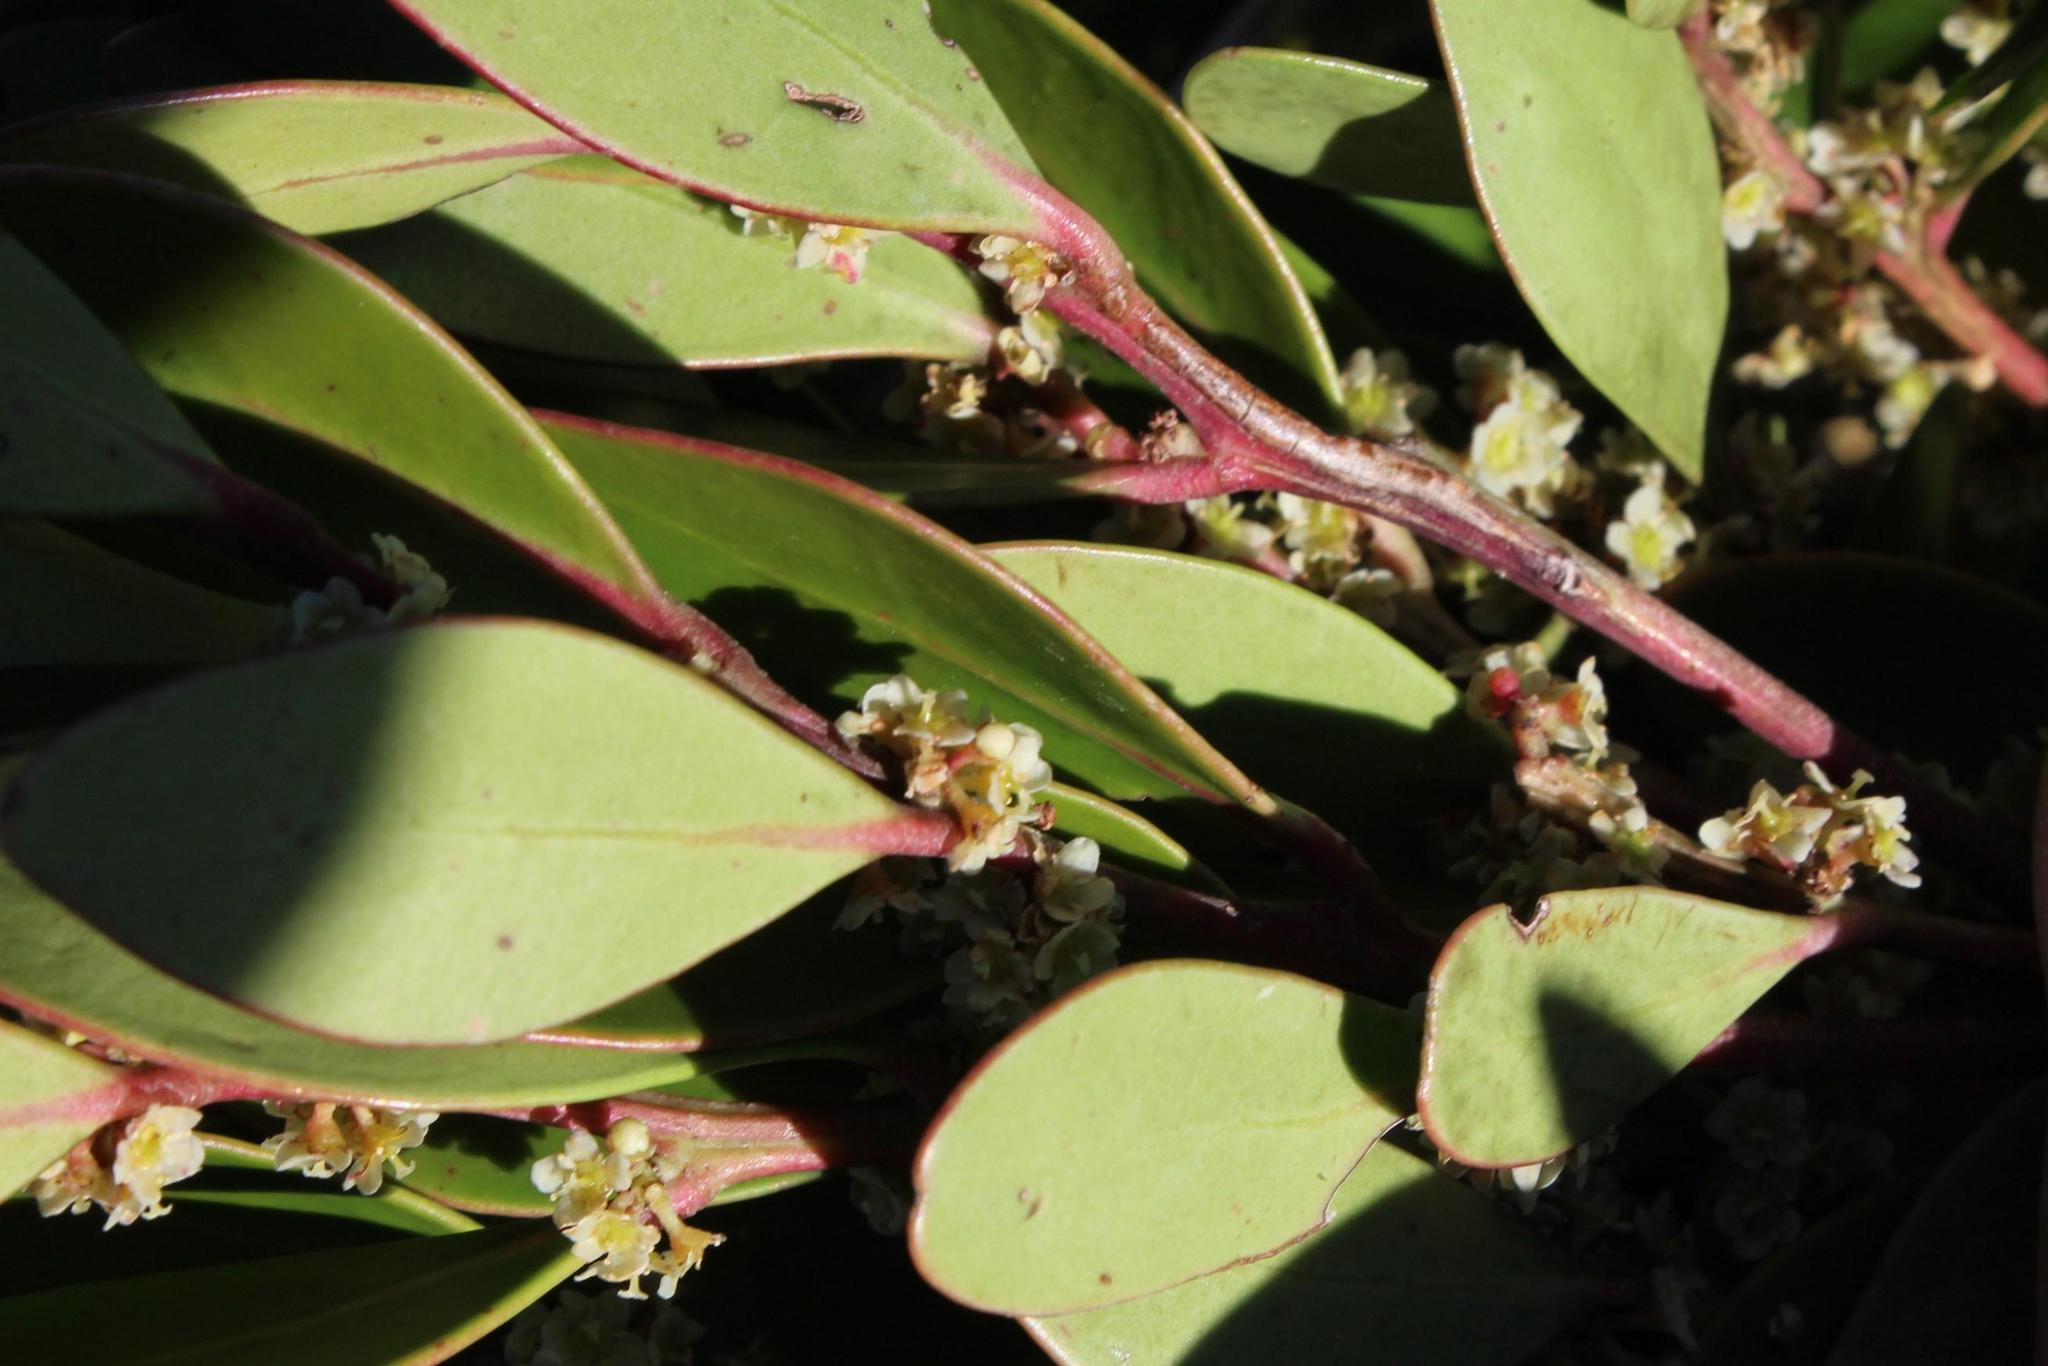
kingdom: Plantae
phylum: Tracheophyta
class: Magnoliopsida
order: Celastrales
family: Celastraceae
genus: Gymnosporia
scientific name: Gymnosporia laurina
